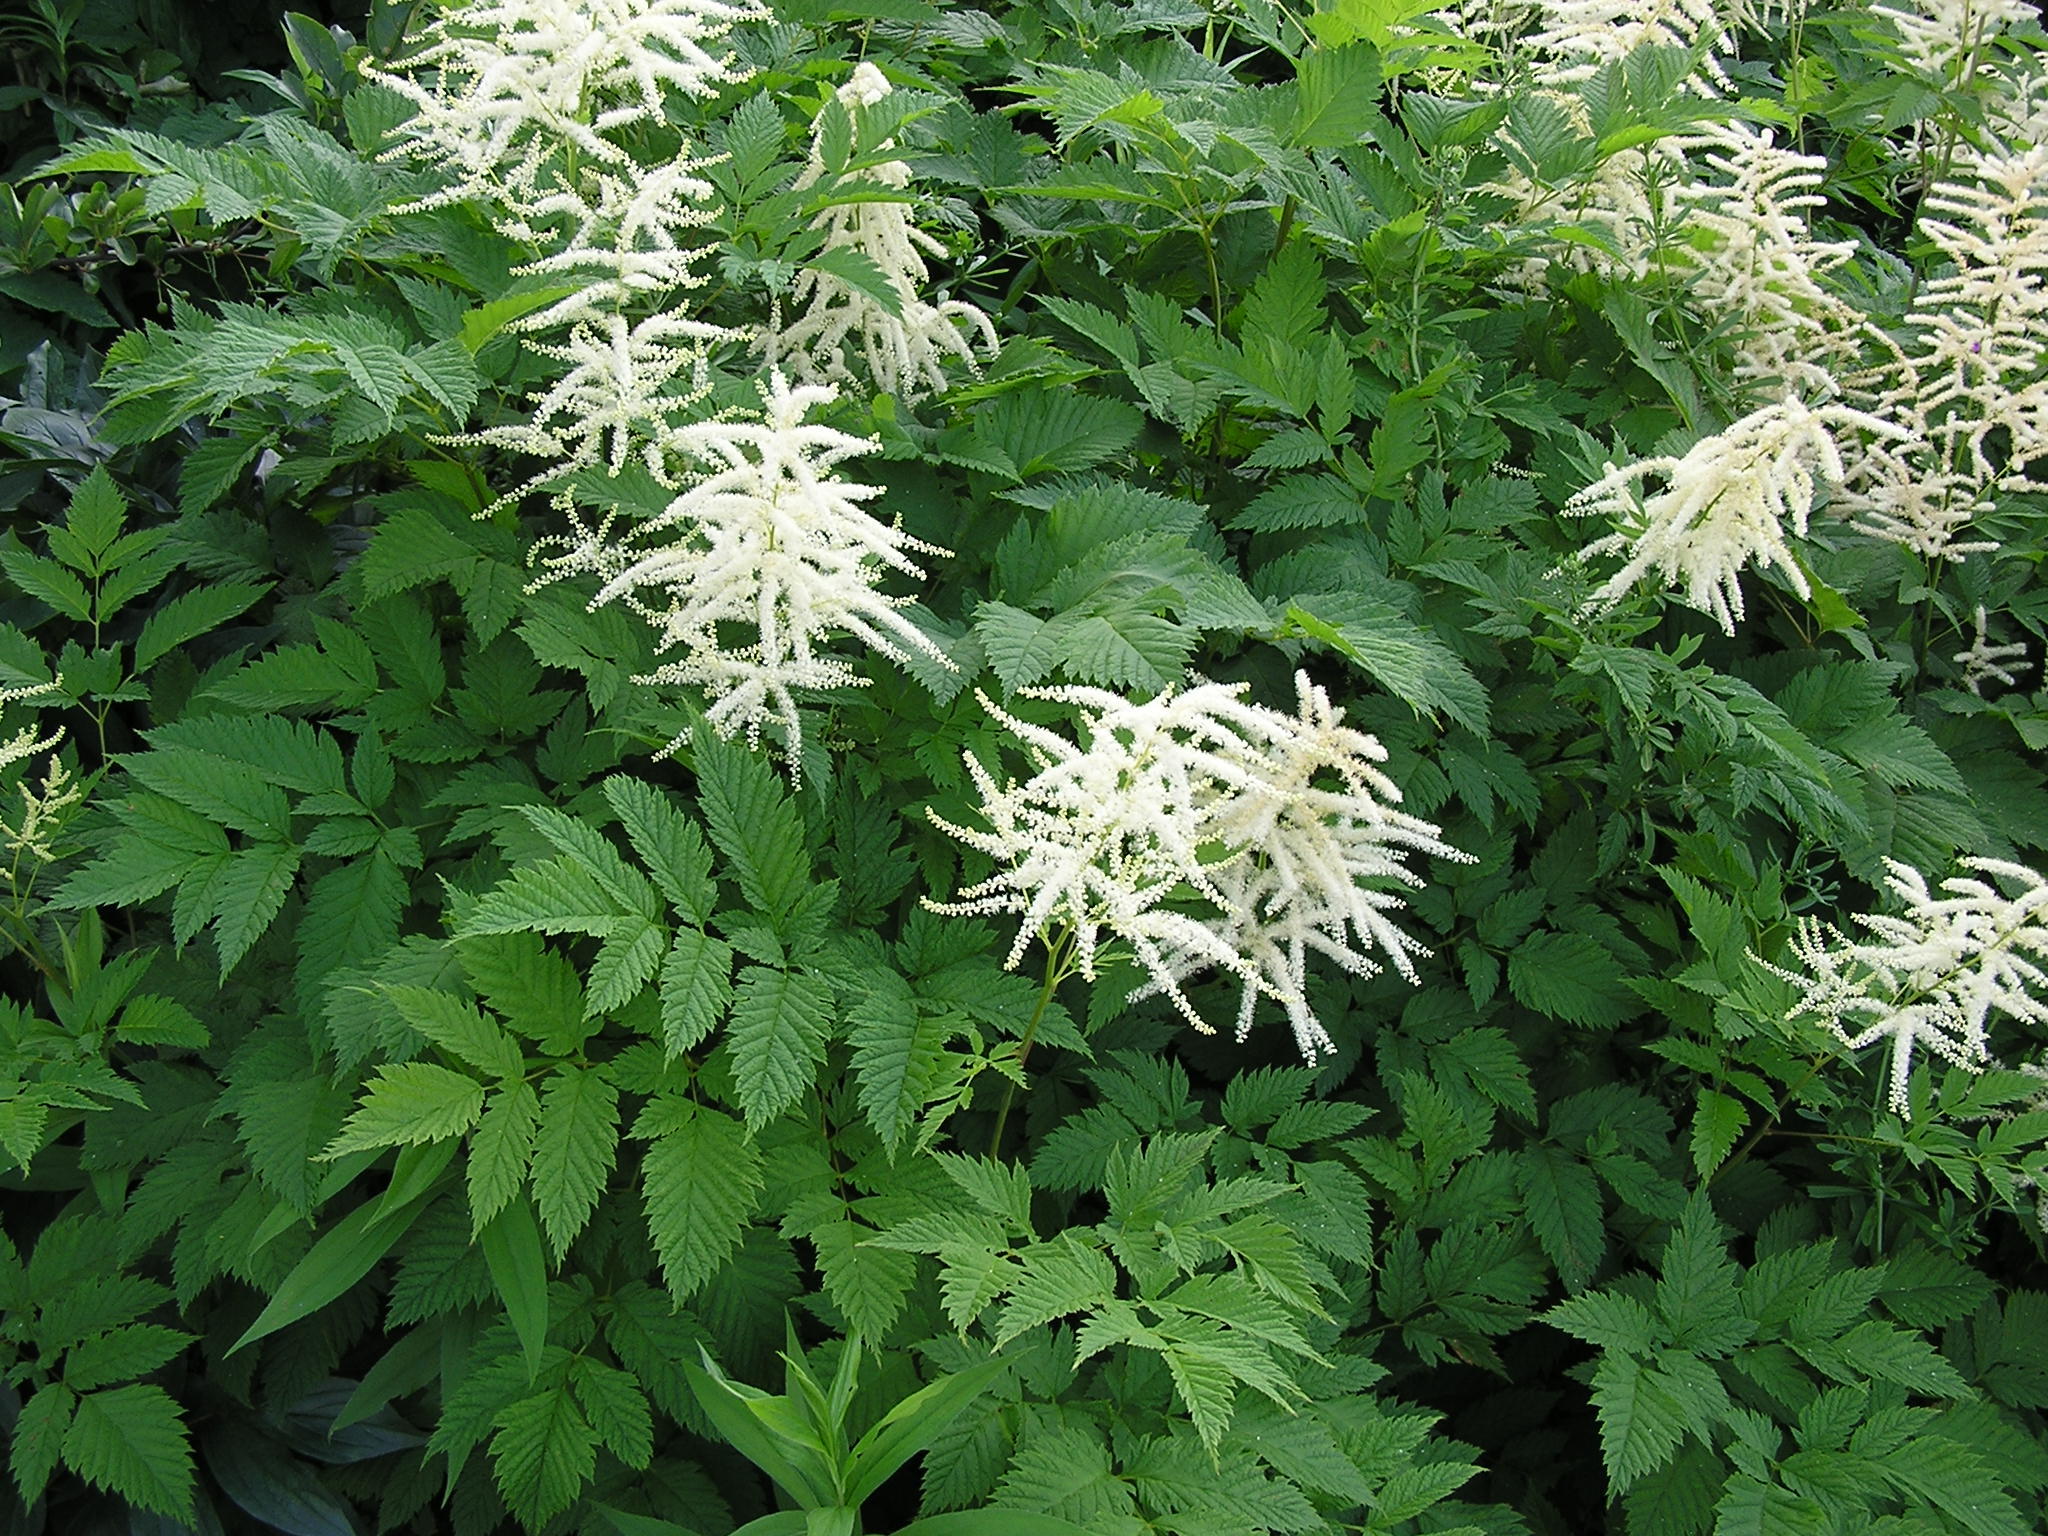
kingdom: Plantae
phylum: Tracheophyta
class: Magnoliopsida
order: Rosales
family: Rosaceae
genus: Aruncus
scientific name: Aruncus dioicus
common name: Buck's-beard
